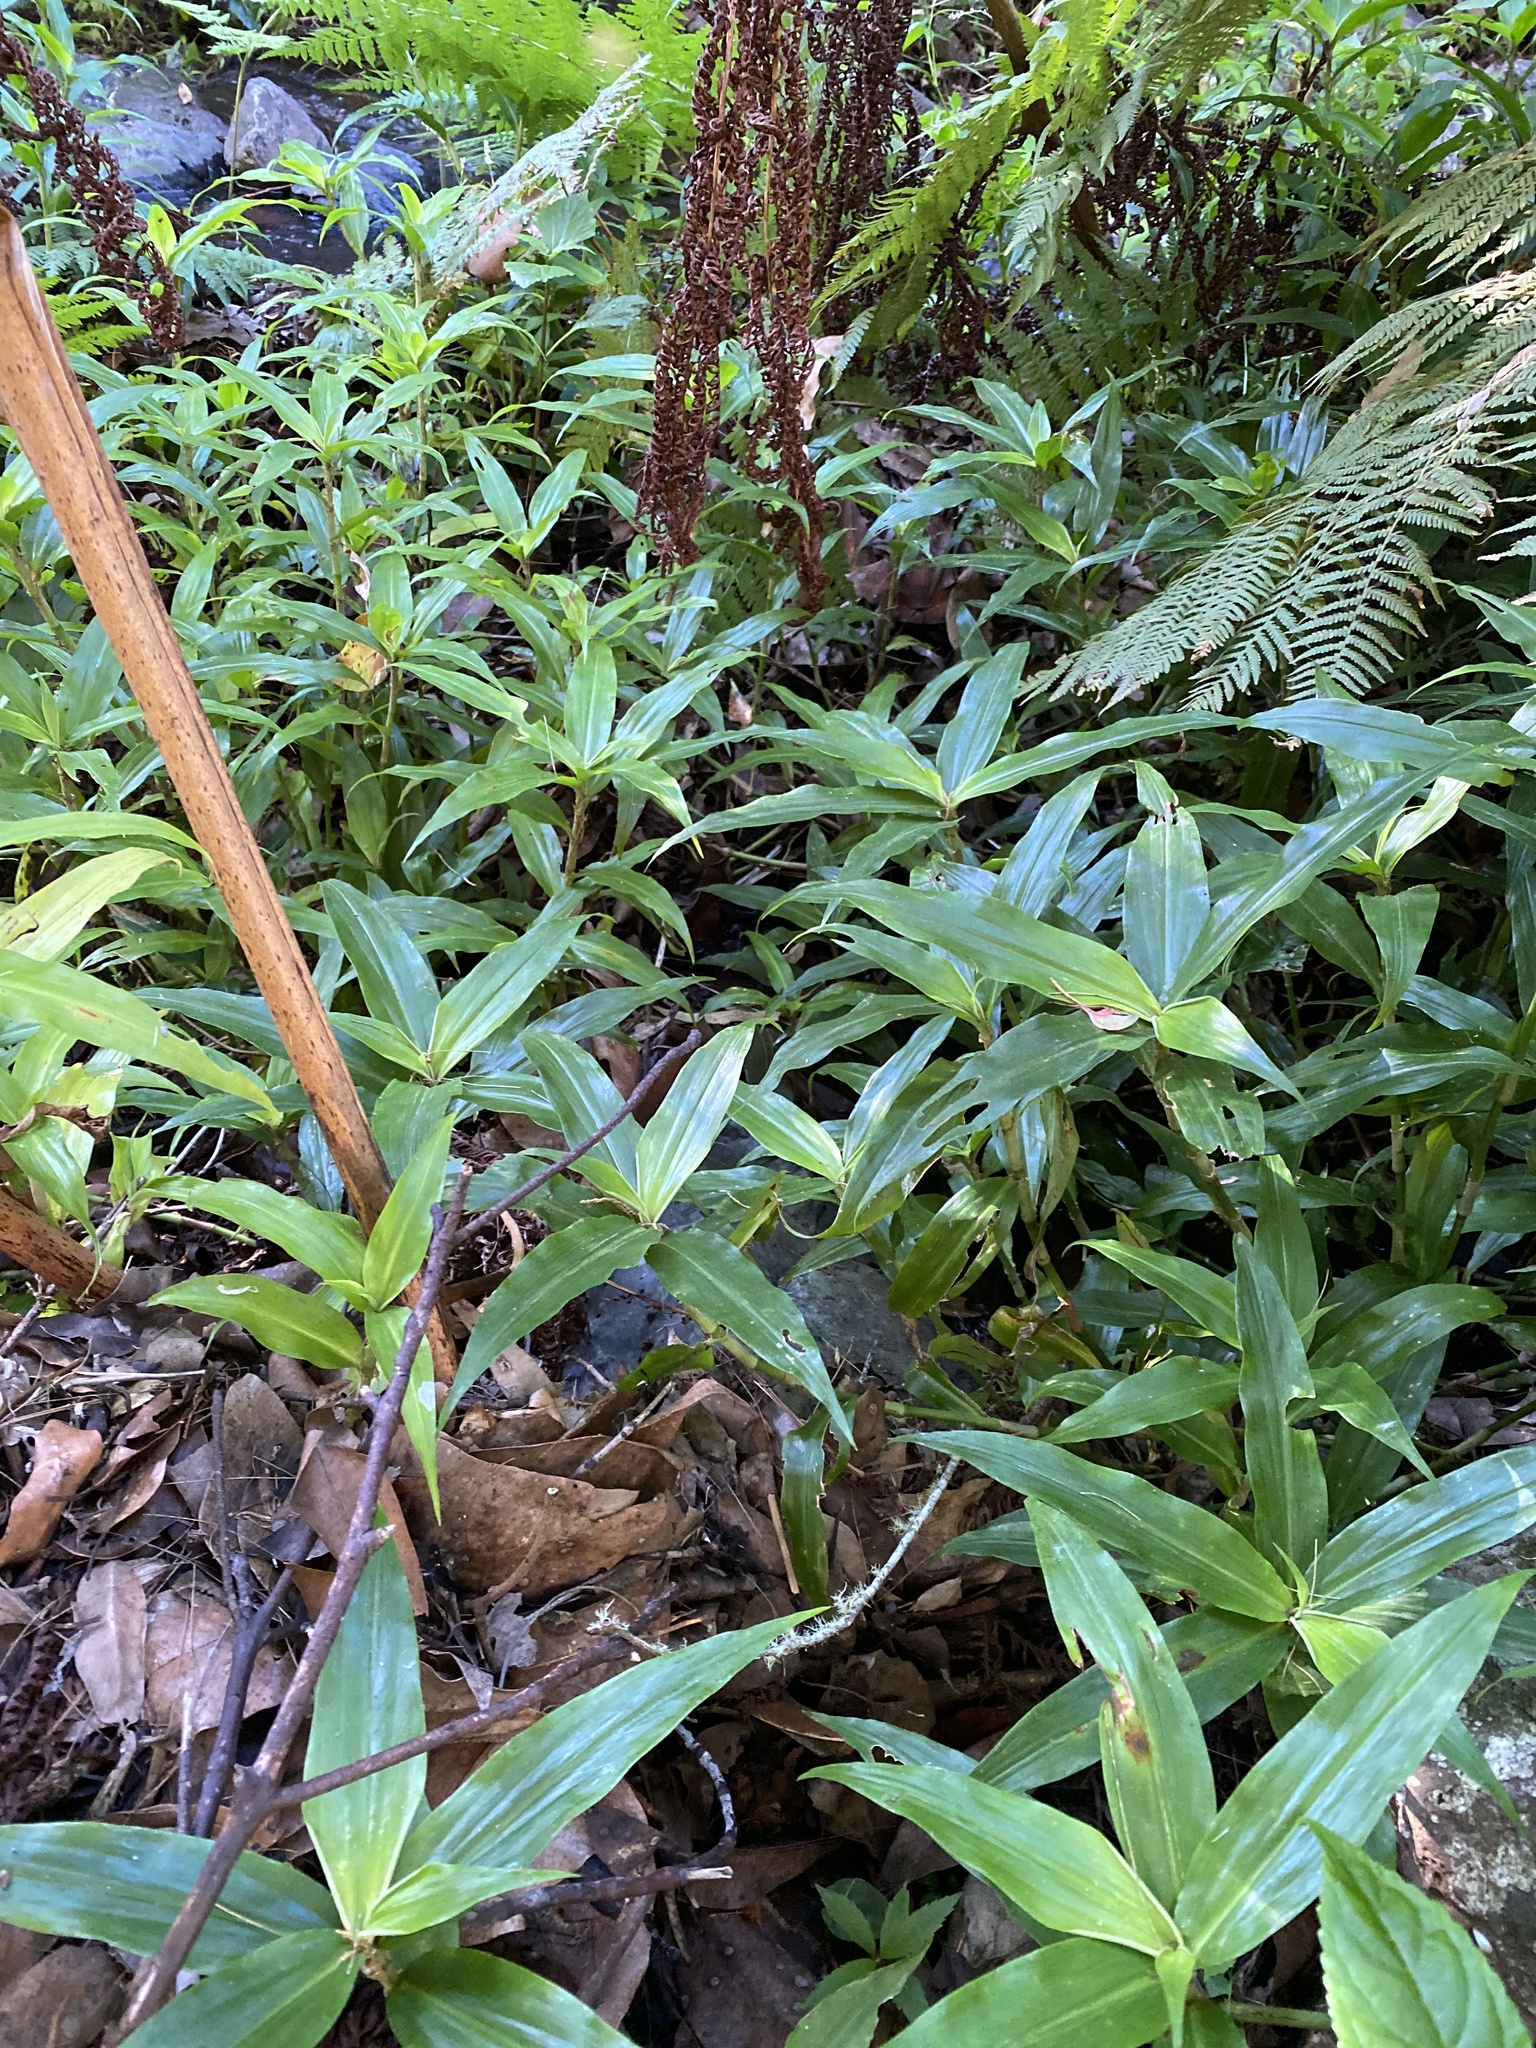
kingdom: Plantae
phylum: Tracheophyta
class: Liliopsida
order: Commelinales
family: Commelinaceae
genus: Pollia
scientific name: Pollia crispata
